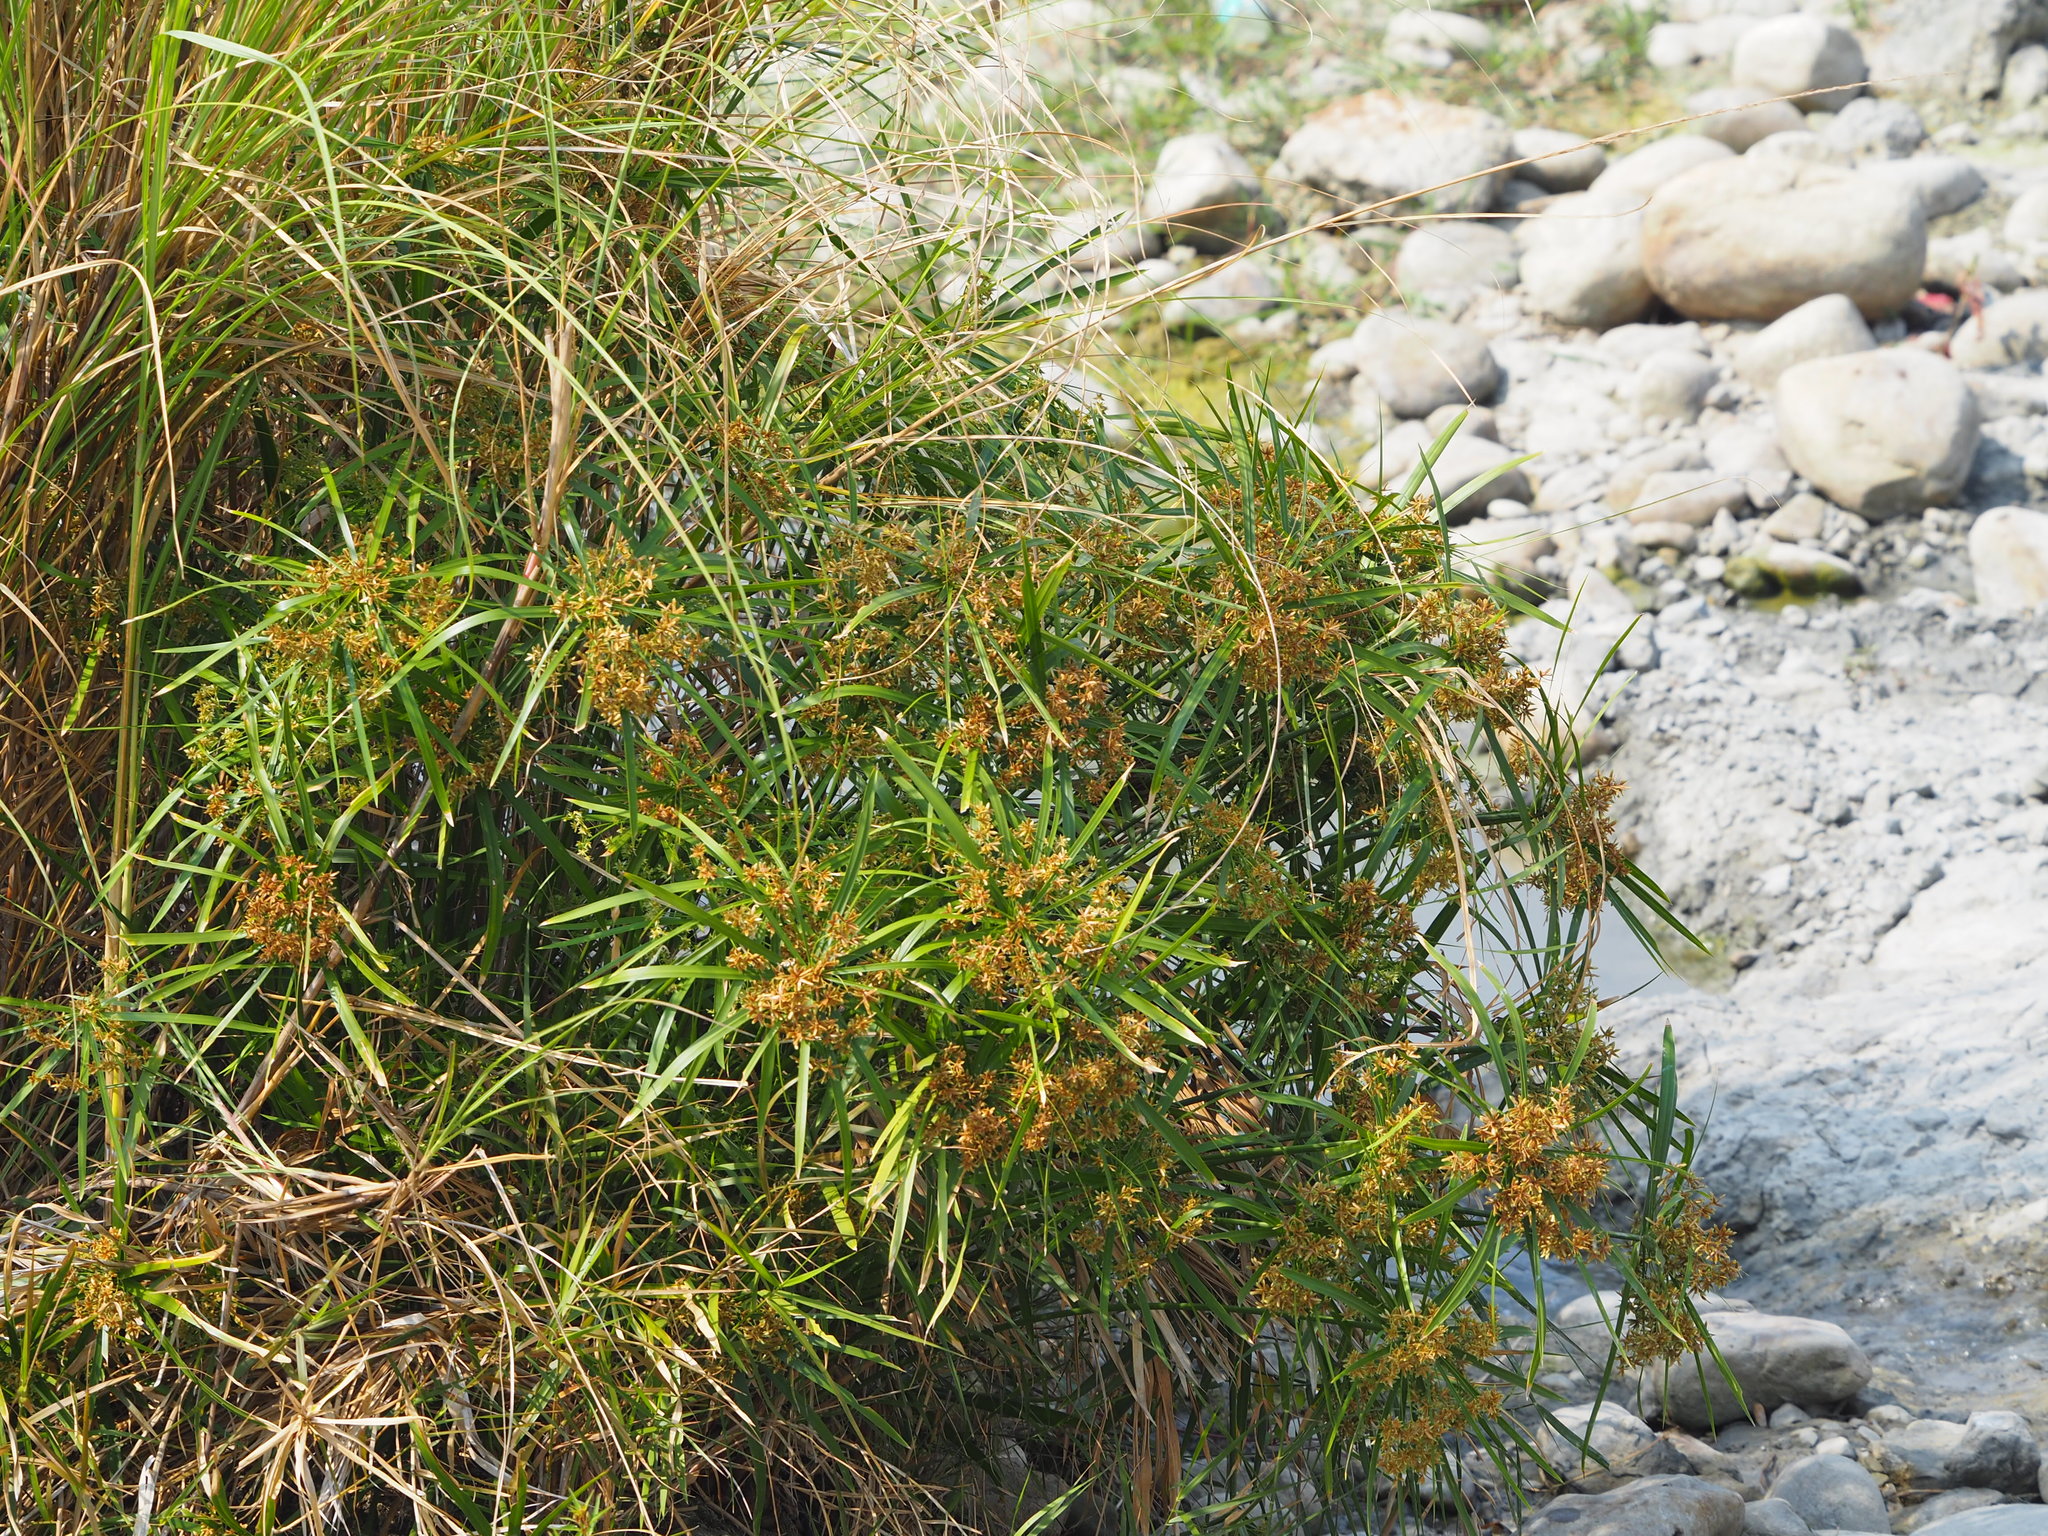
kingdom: Plantae
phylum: Tracheophyta
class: Liliopsida
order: Poales
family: Cyperaceae
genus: Cyperus
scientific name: Cyperus alternifolius
